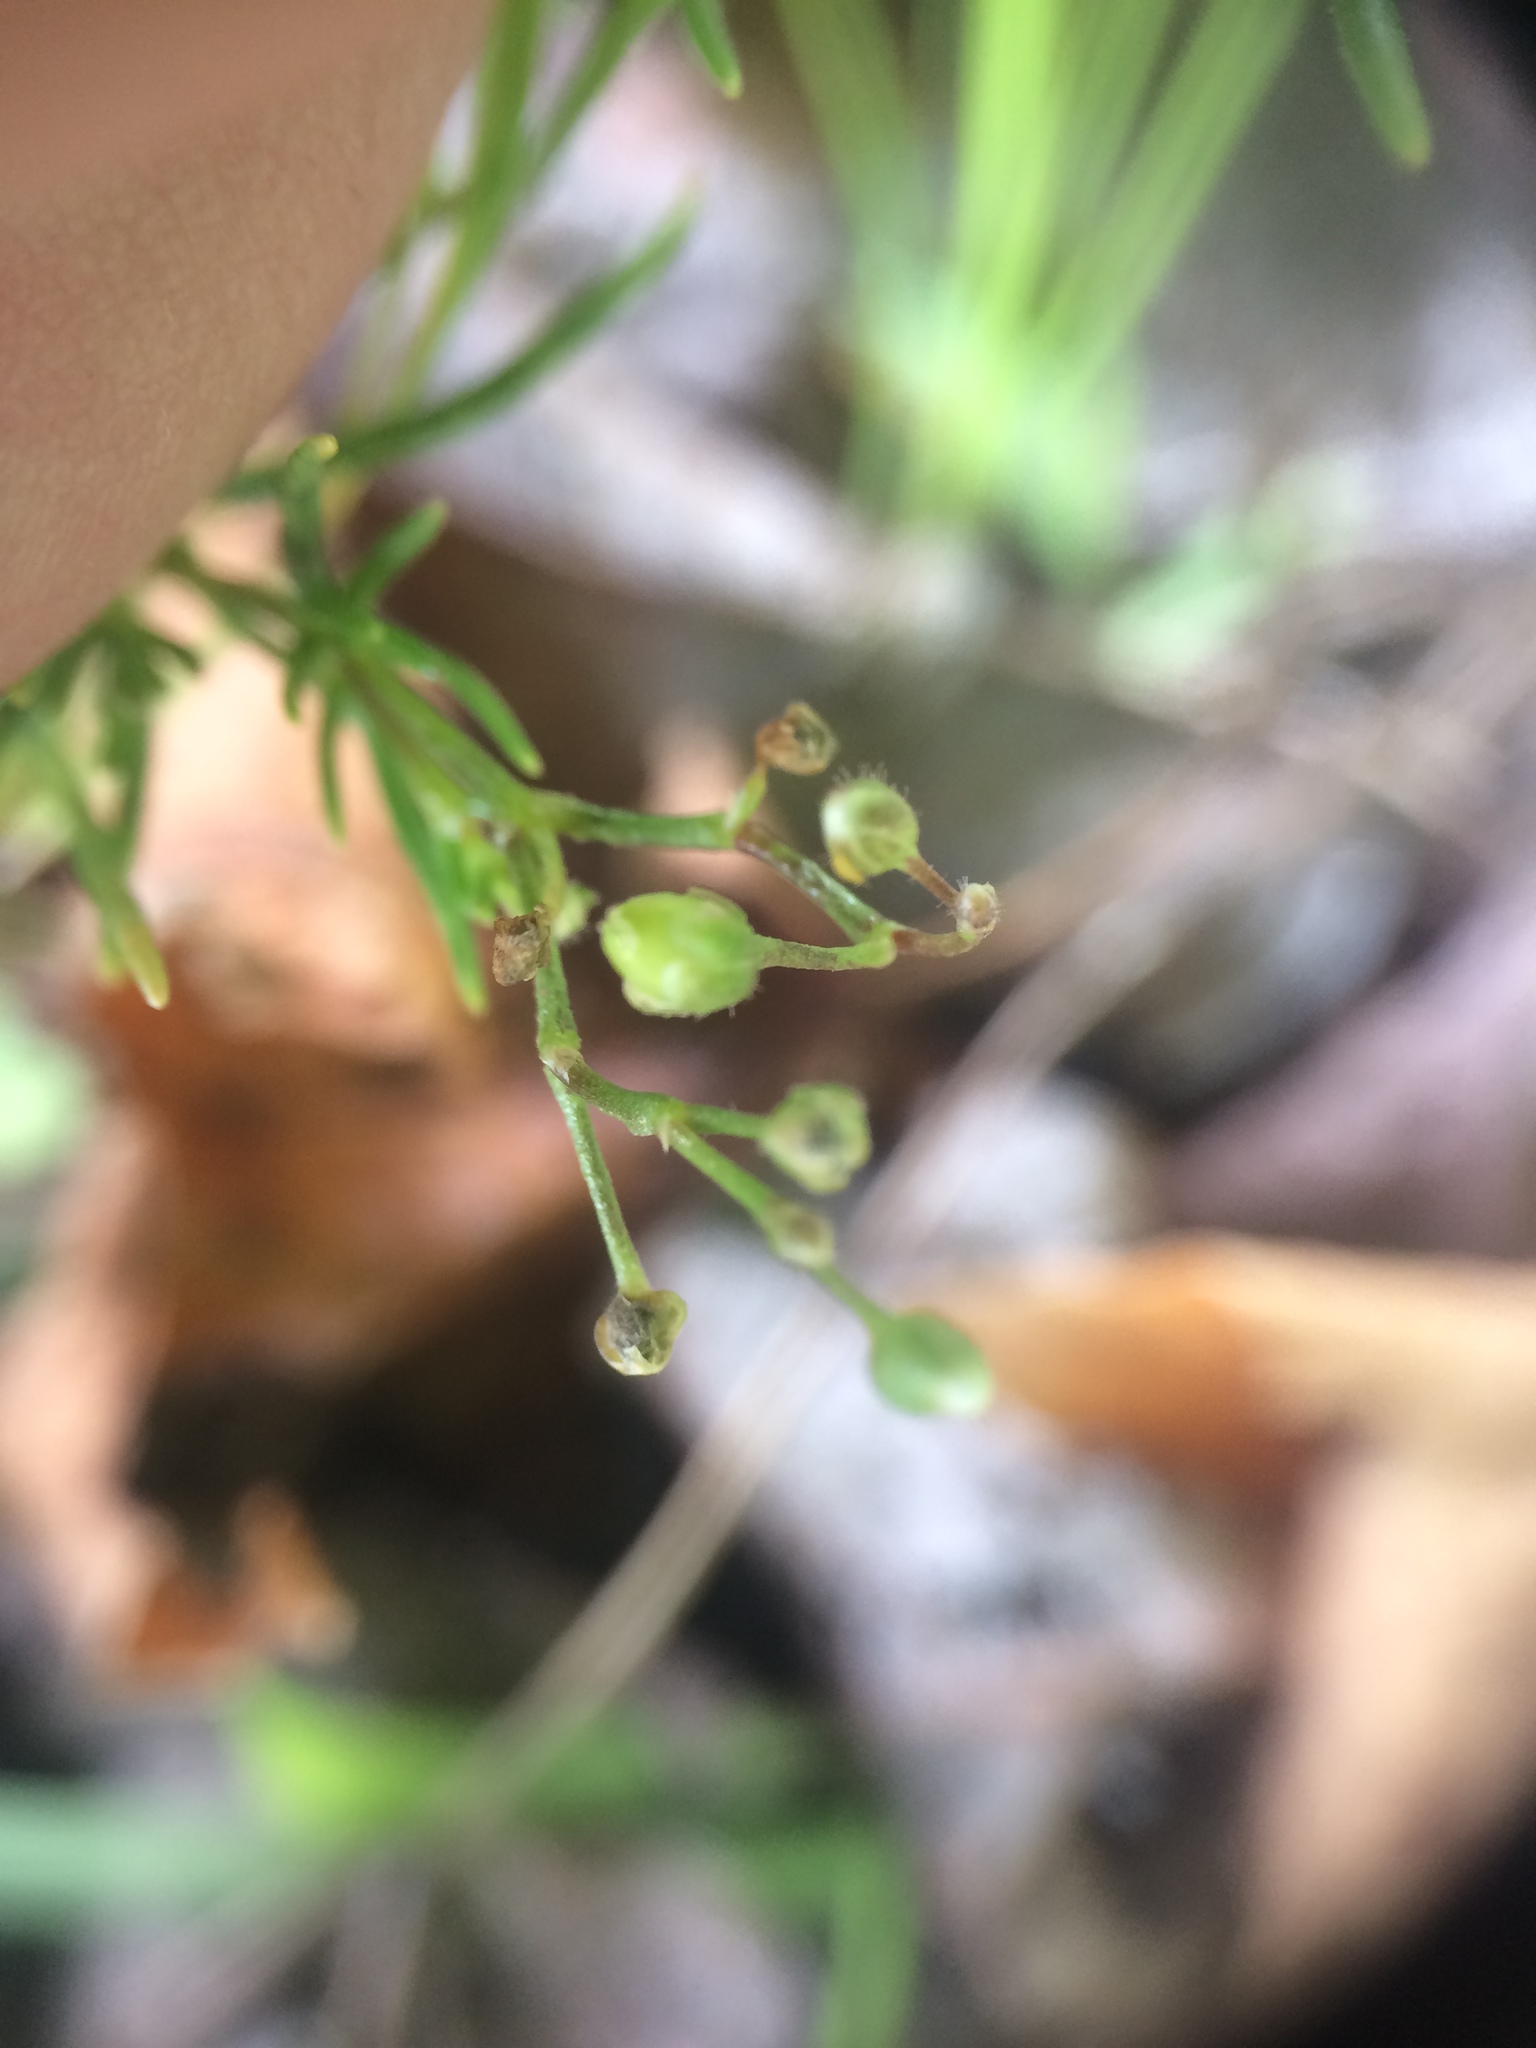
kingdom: Plantae
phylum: Tracheophyta
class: Magnoliopsida
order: Caryophyllales
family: Caryophyllaceae
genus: Spergula
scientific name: Spergula arvensis
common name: Corn spurrey
